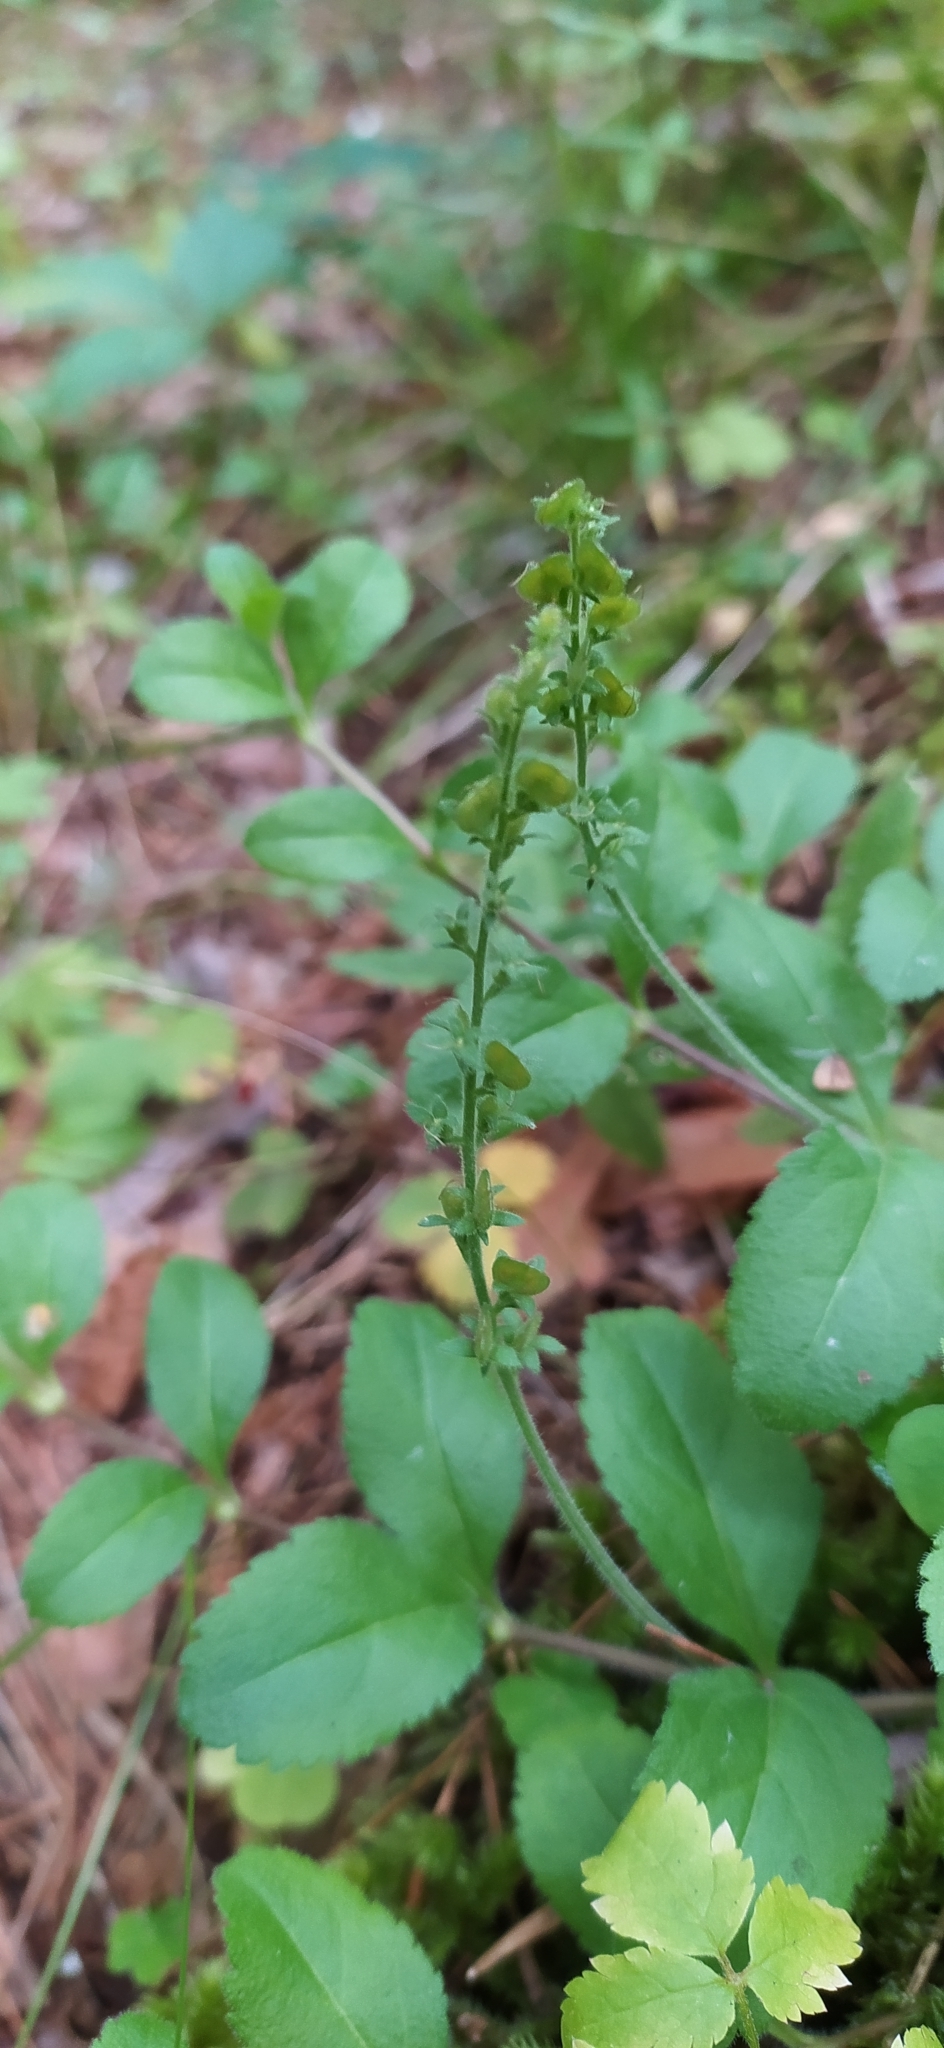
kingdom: Plantae
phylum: Tracheophyta
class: Magnoliopsida
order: Lamiales
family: Plantaginaceae
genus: Veronica
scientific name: Veronica officinalis
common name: Common speedwell
